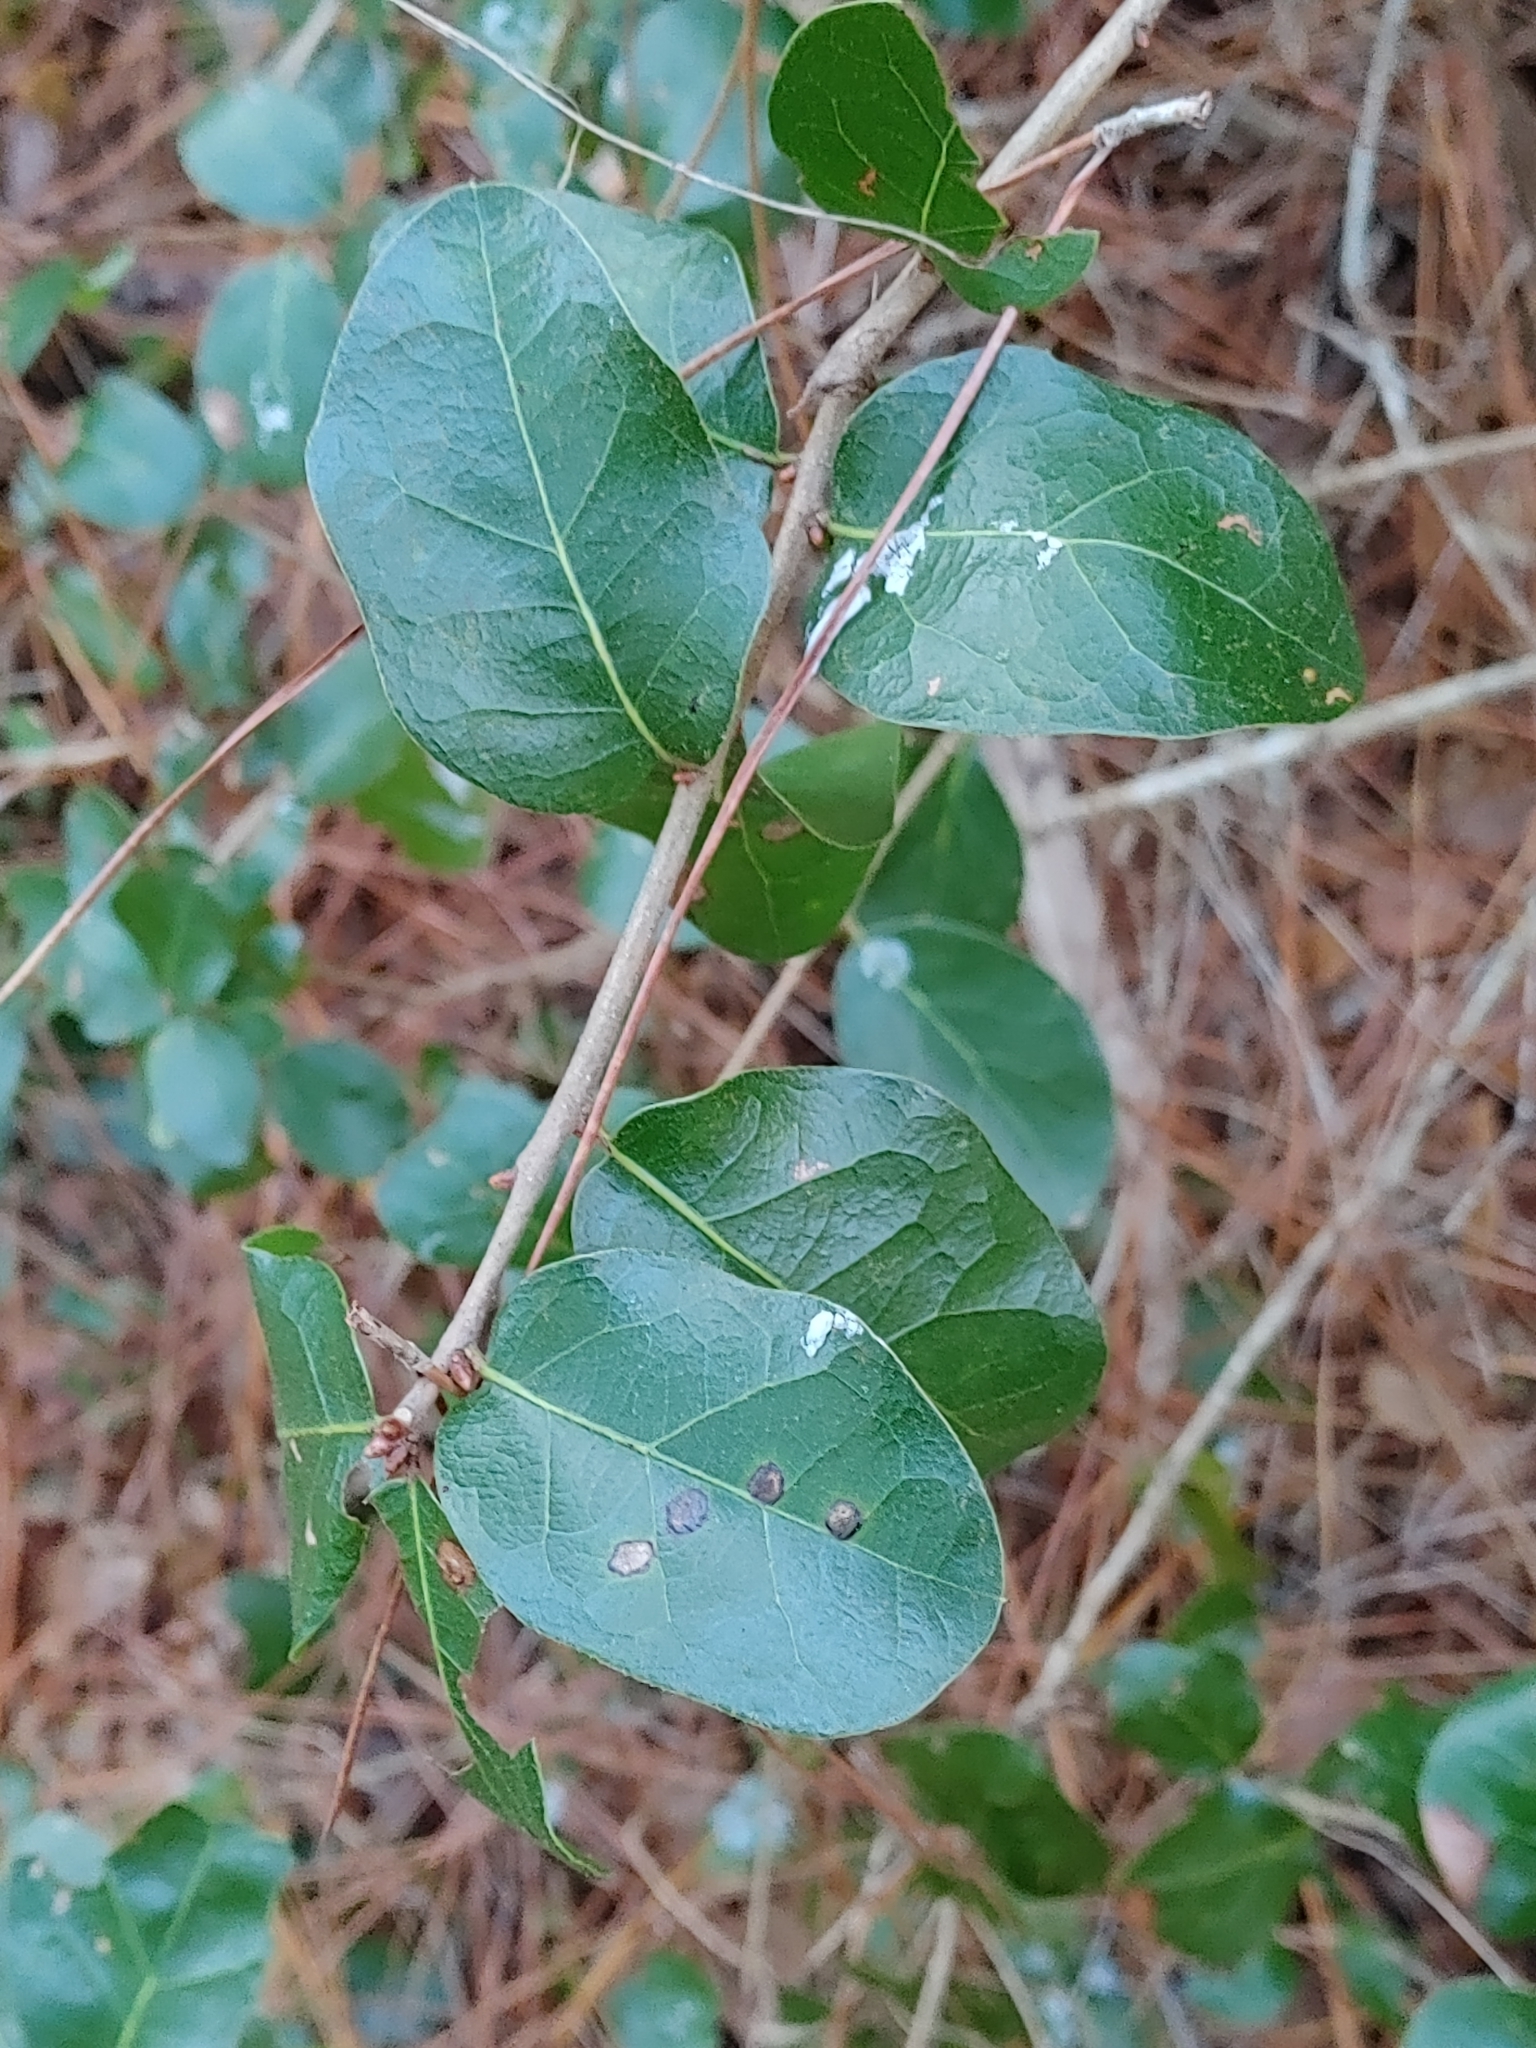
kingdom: Plantae
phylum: Tracheophyta
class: Magnoliopsida
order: Fagales
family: Fagaceae
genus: Quercus
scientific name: Quercus myrtifolia
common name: Myrtle oak
